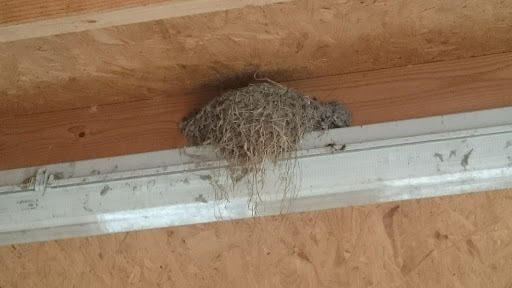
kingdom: Animalia
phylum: Chordata
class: Aves
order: Passeriformes
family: Hirundinidae
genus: Hirundo
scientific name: Hirundo rustica
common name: Barn swallow
